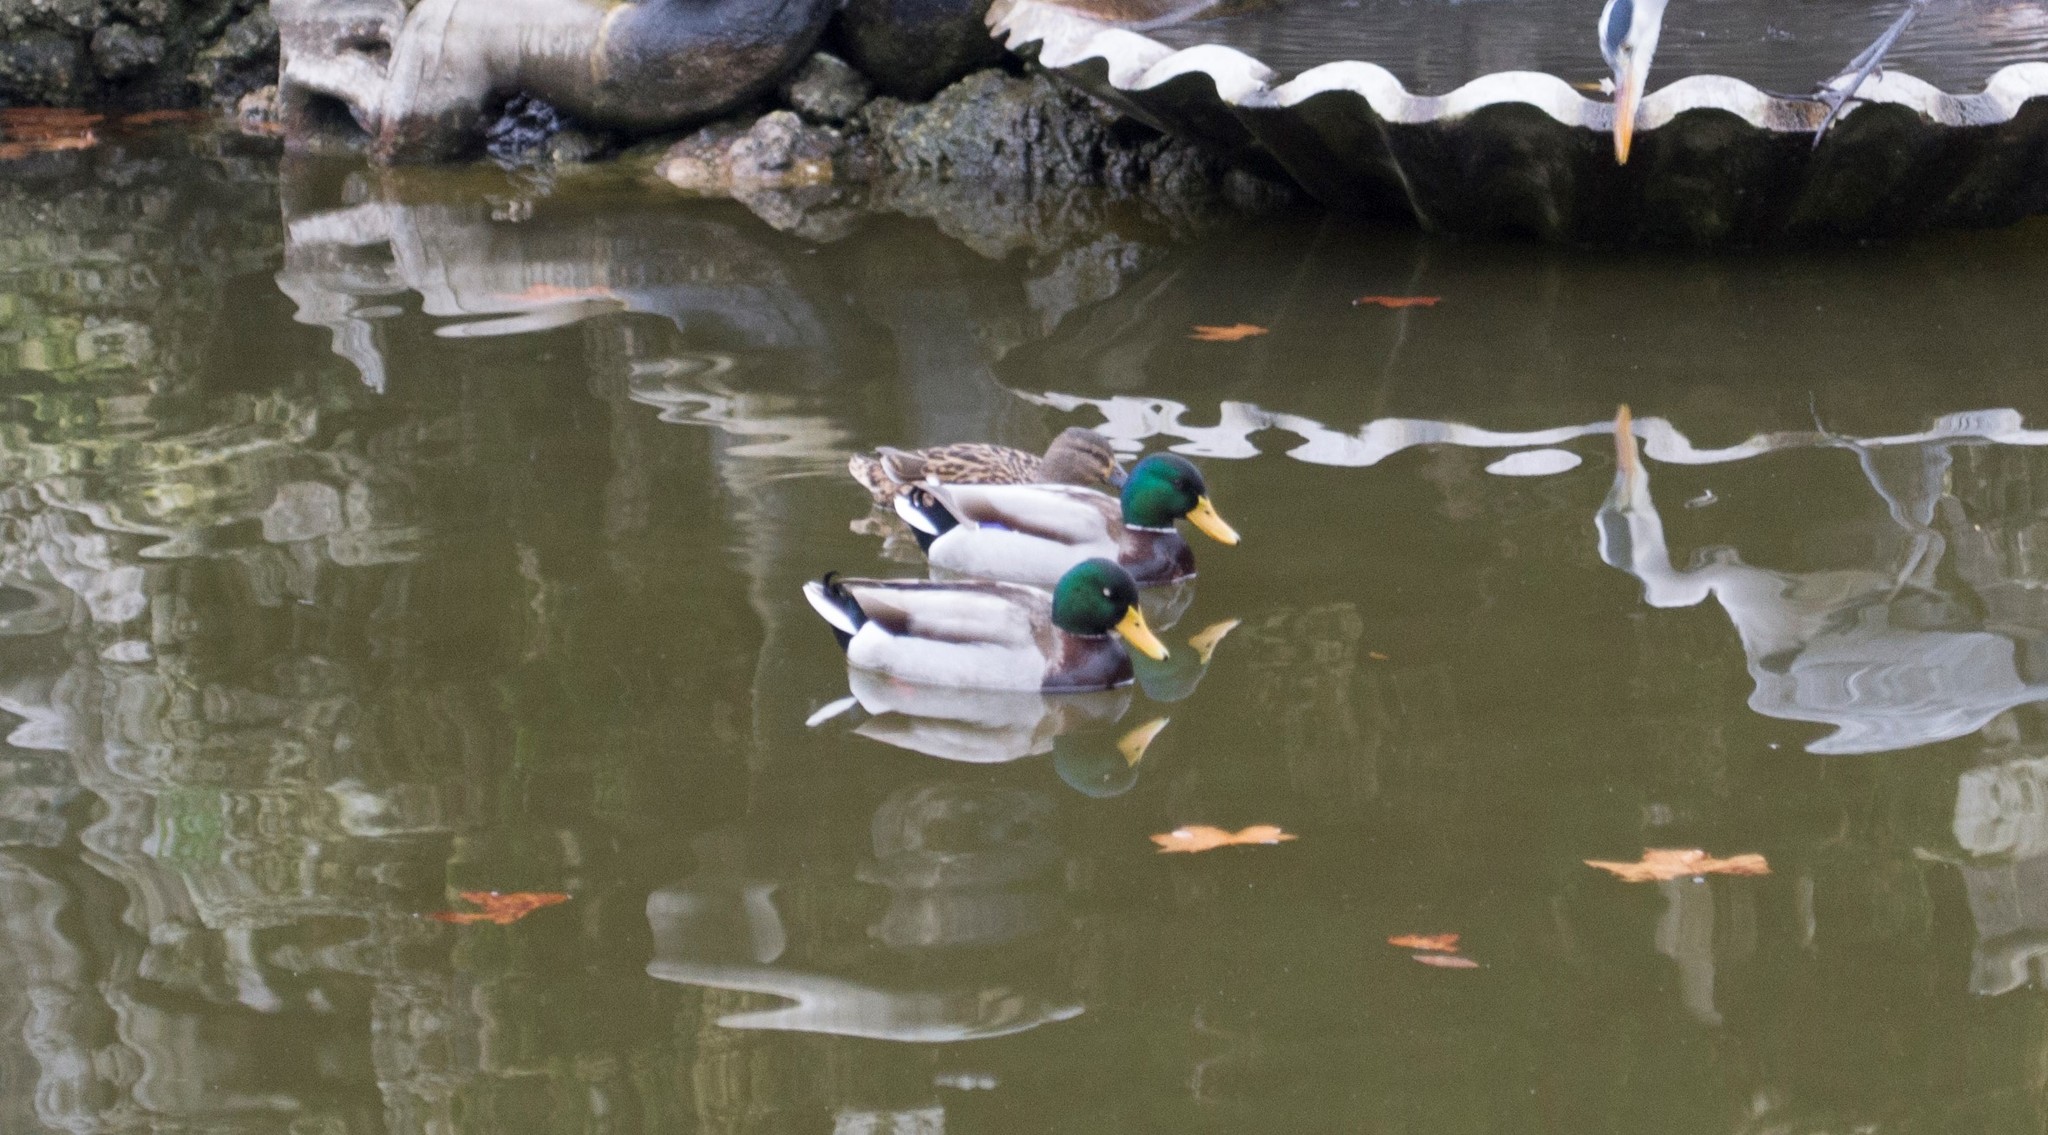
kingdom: Animalia
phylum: Chordata
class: Aves
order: Anseriformes
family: Anatidae
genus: Anas
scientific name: Anas platyrhynchos
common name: Mallard
